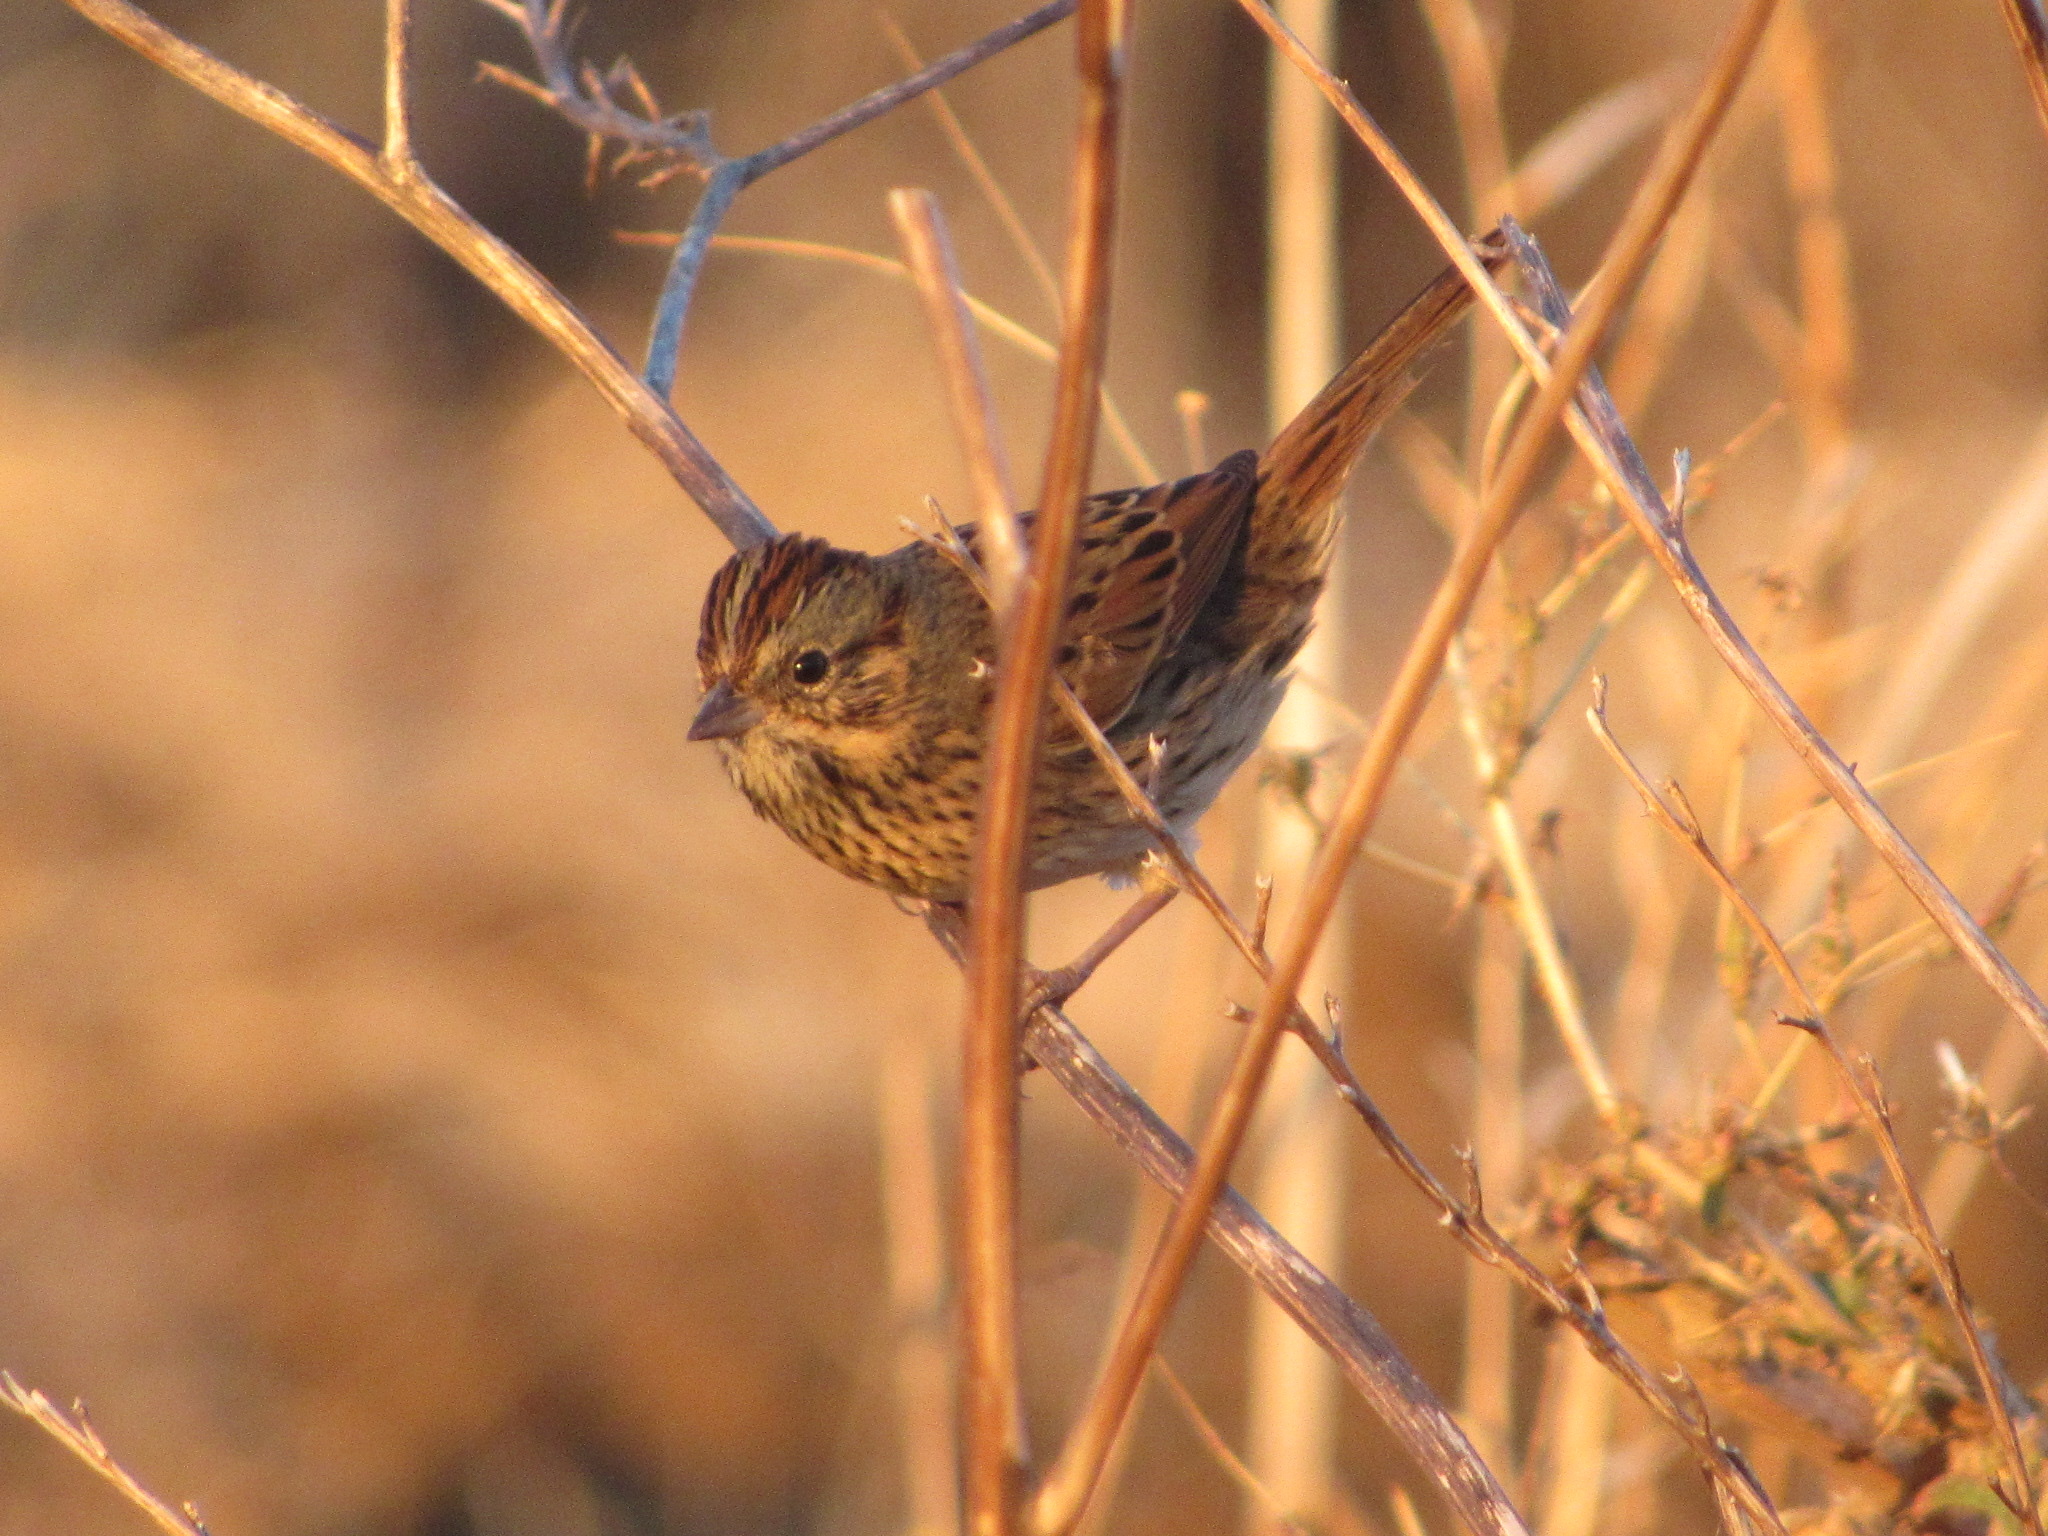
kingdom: Animalia
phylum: Chordata
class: Aves
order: Passeriformes
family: Passerellidae
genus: Melospiza
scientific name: Melospiza lincolnii
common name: Lincoln's sparrow
